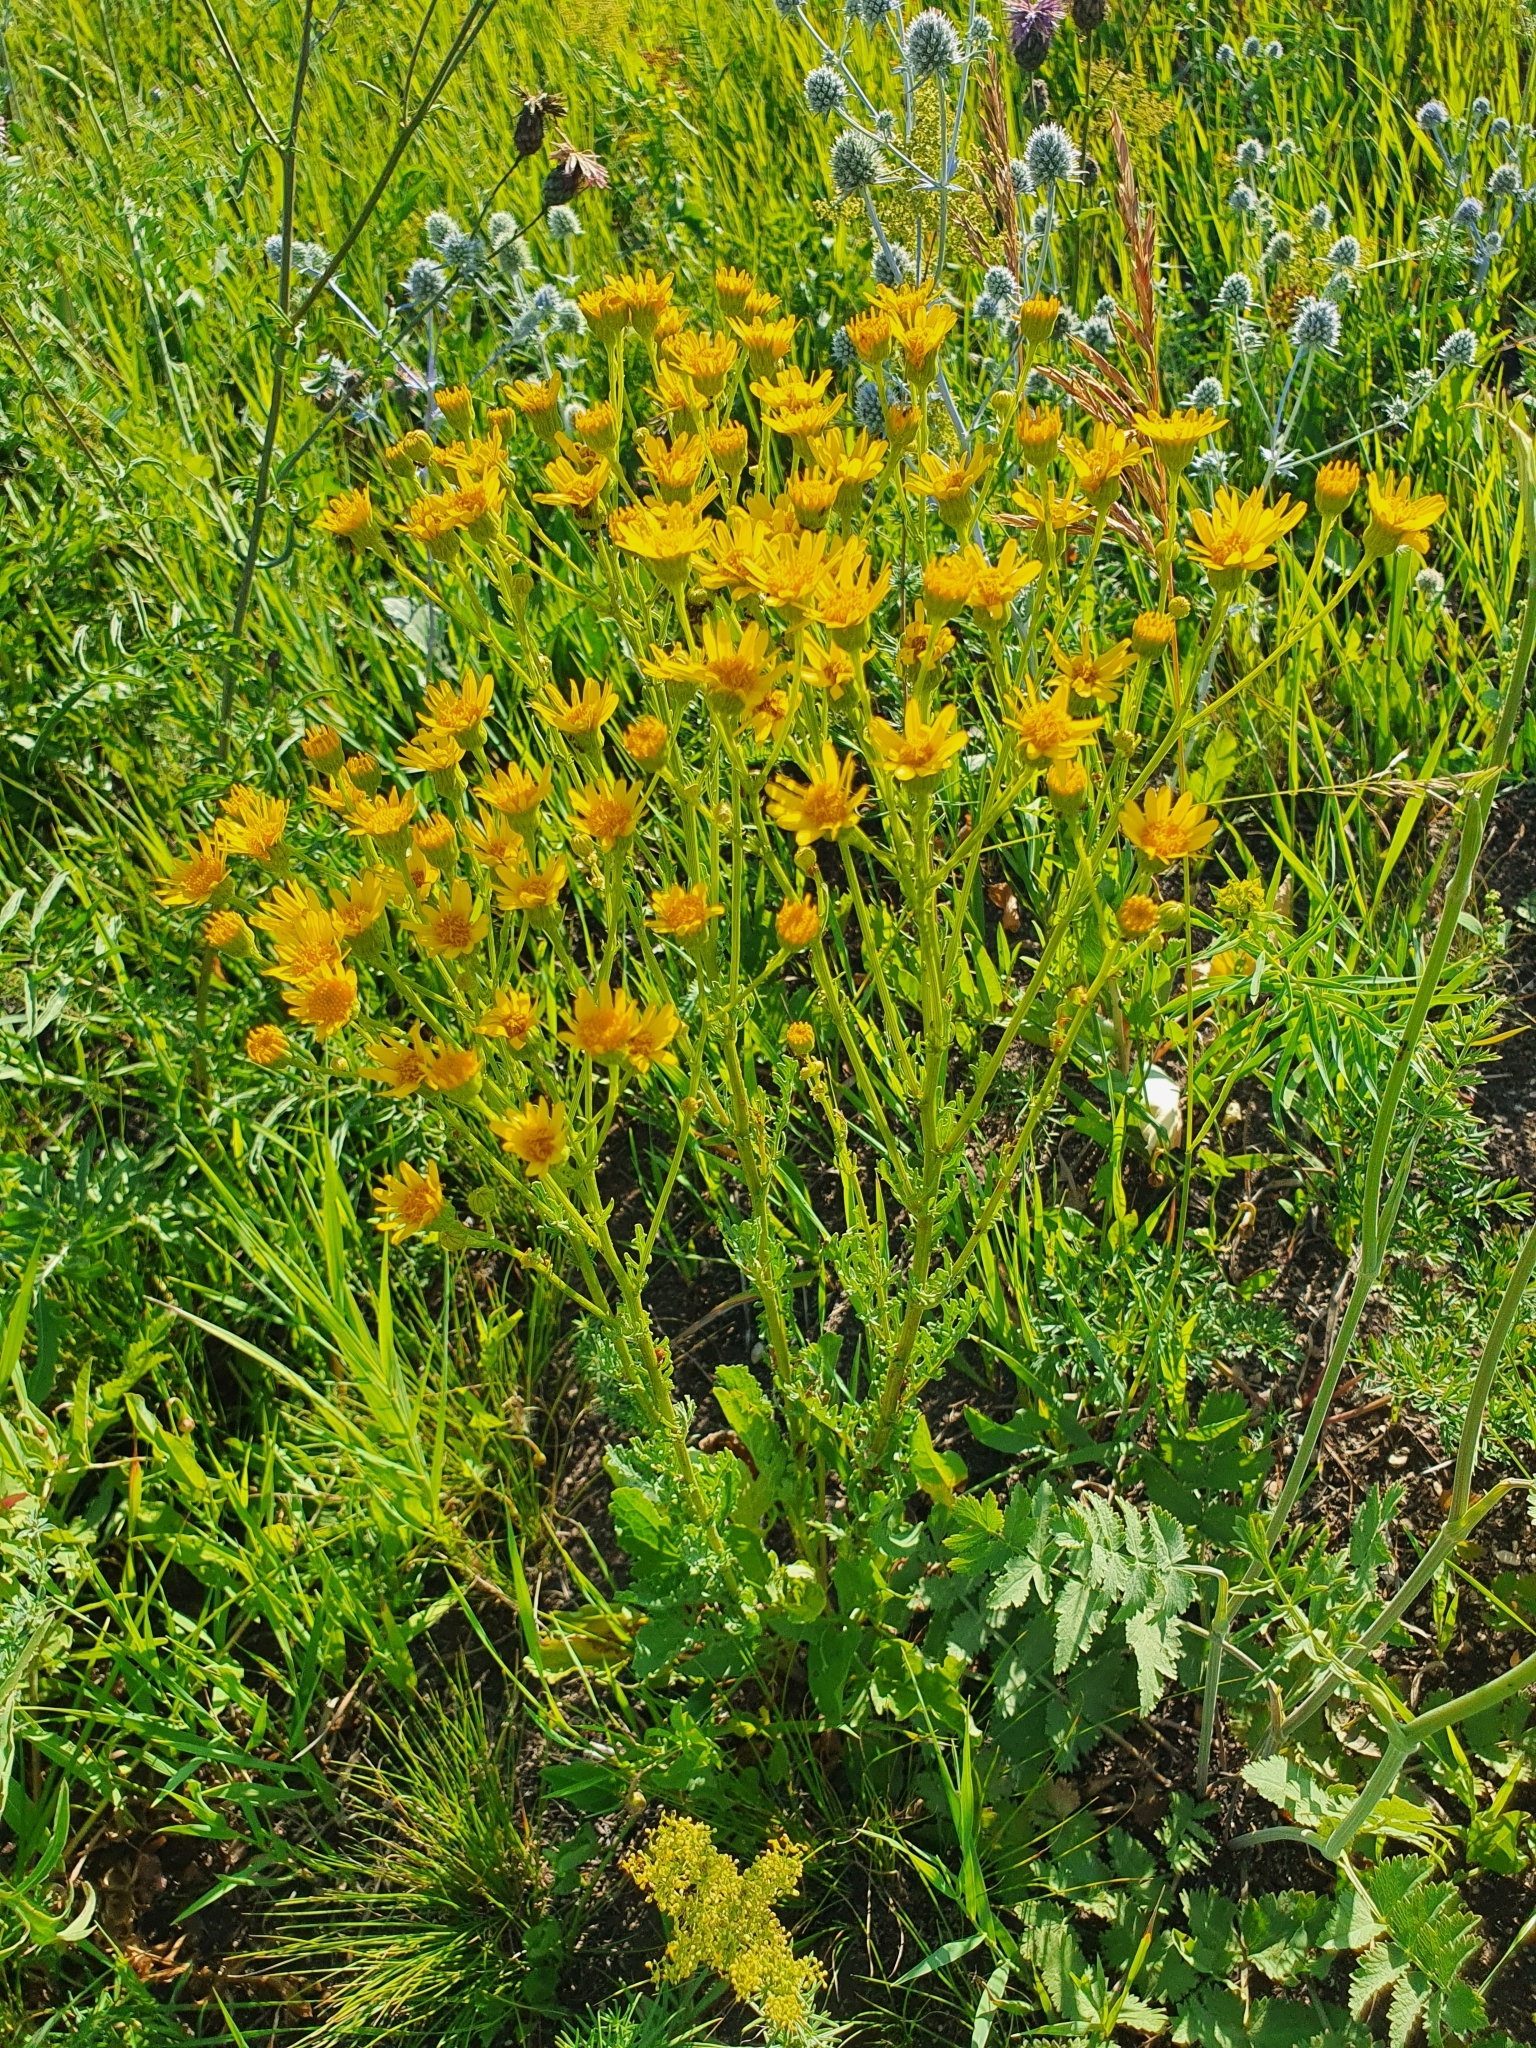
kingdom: Plantae
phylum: Tracheophyta
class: Magnoliopsida
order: Asterales
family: Asteraceae
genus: Jacobaea
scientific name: Jacobaea vulgaris
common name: Stinking willie
